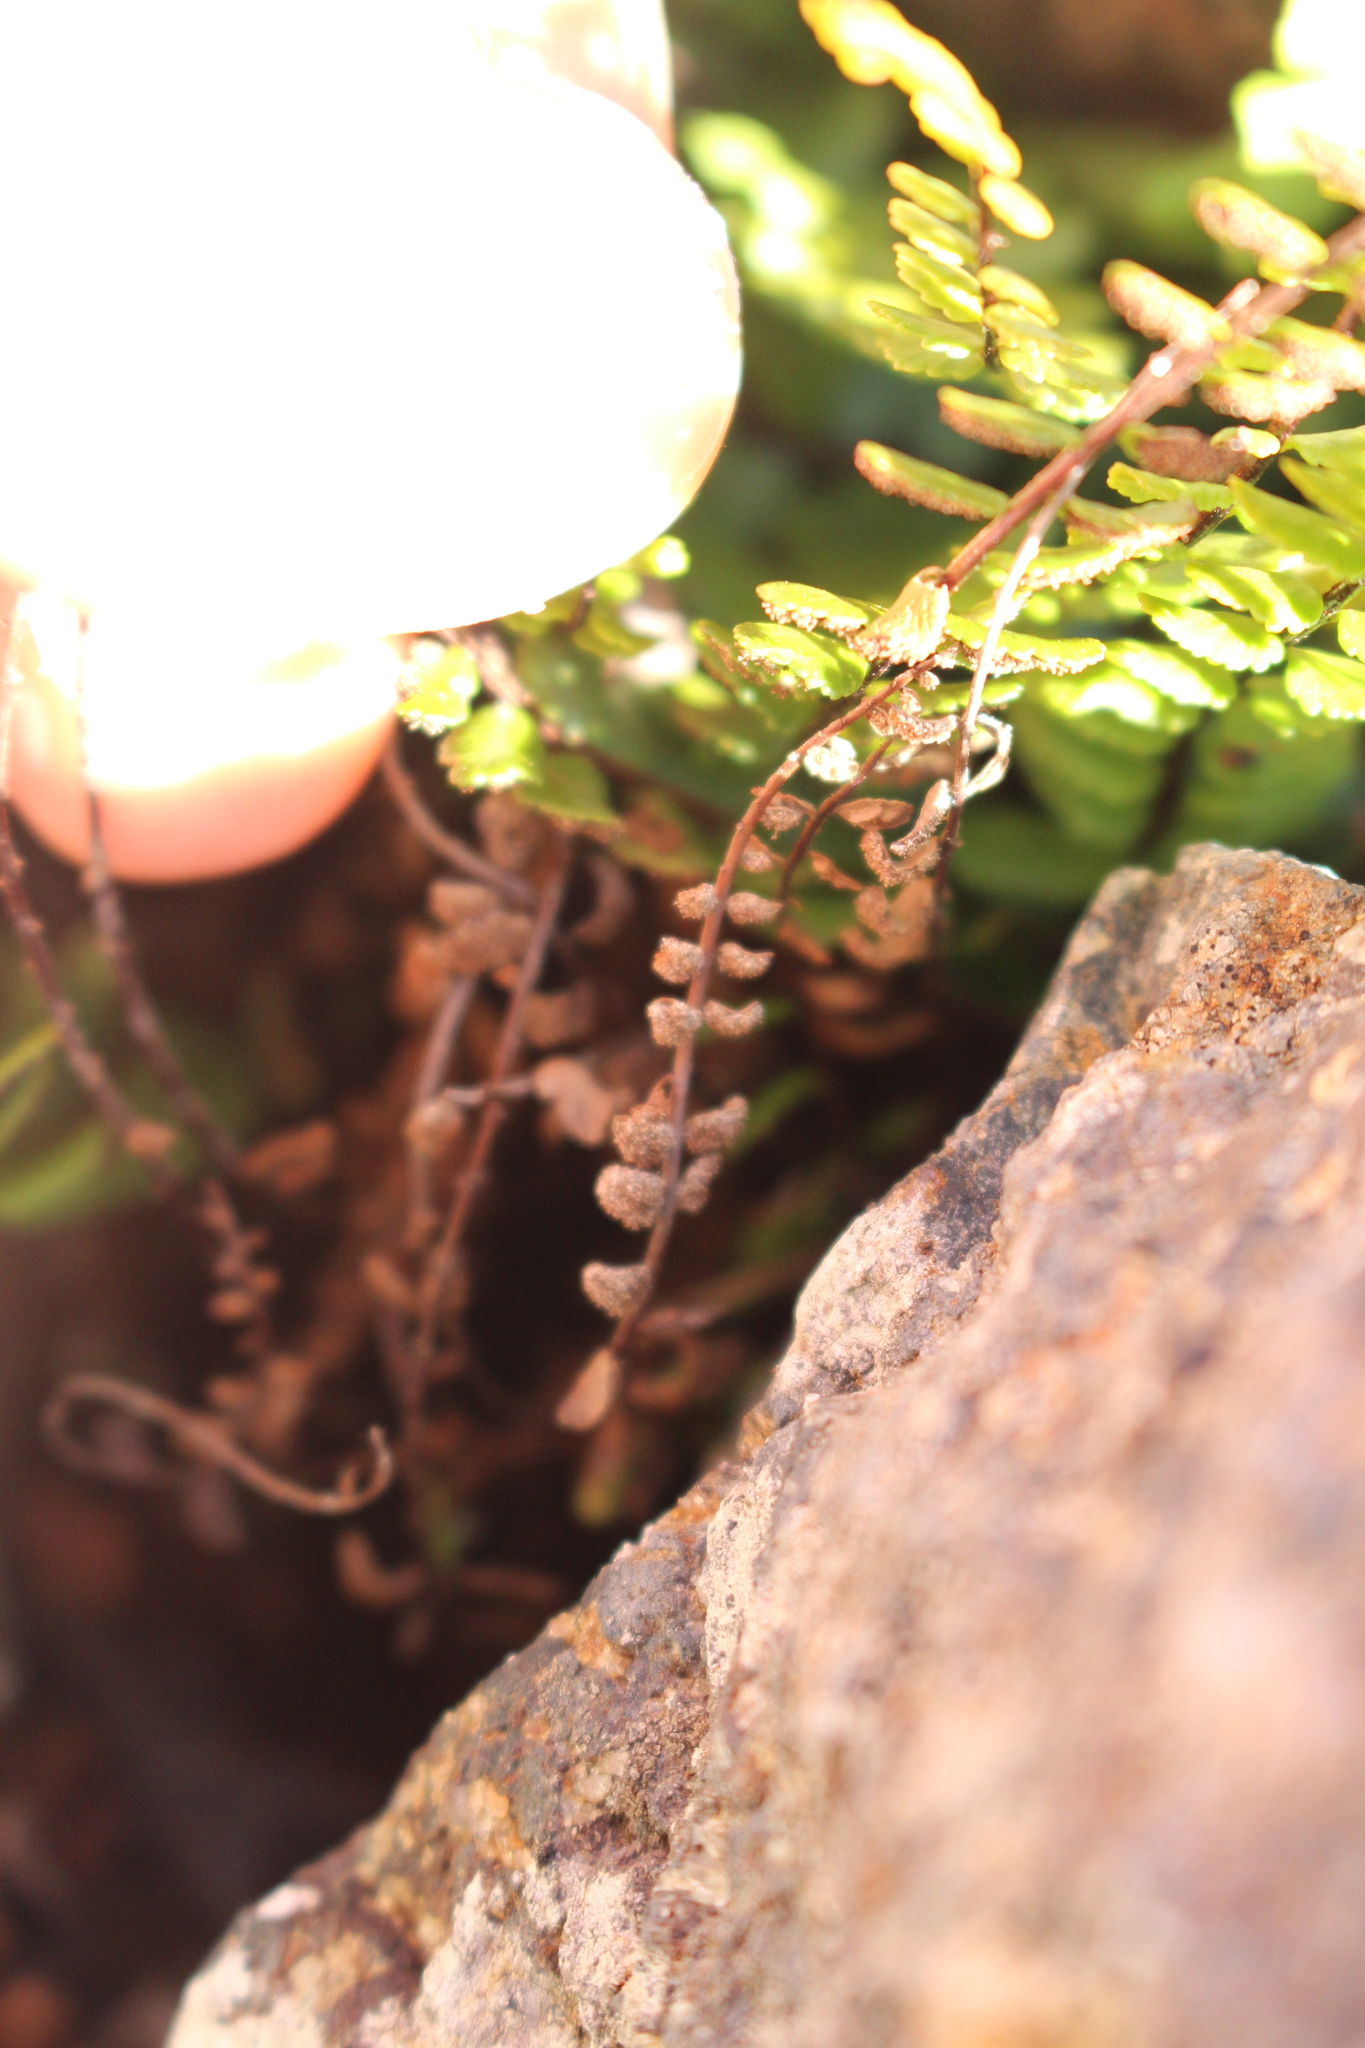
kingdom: Plantae
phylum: Tracheophyta
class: Polypodiopsida
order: Polypodiales
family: Aspleniaceae
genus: Asplenium
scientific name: Asplenium trichomanes
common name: Maidenhair spleenwort
